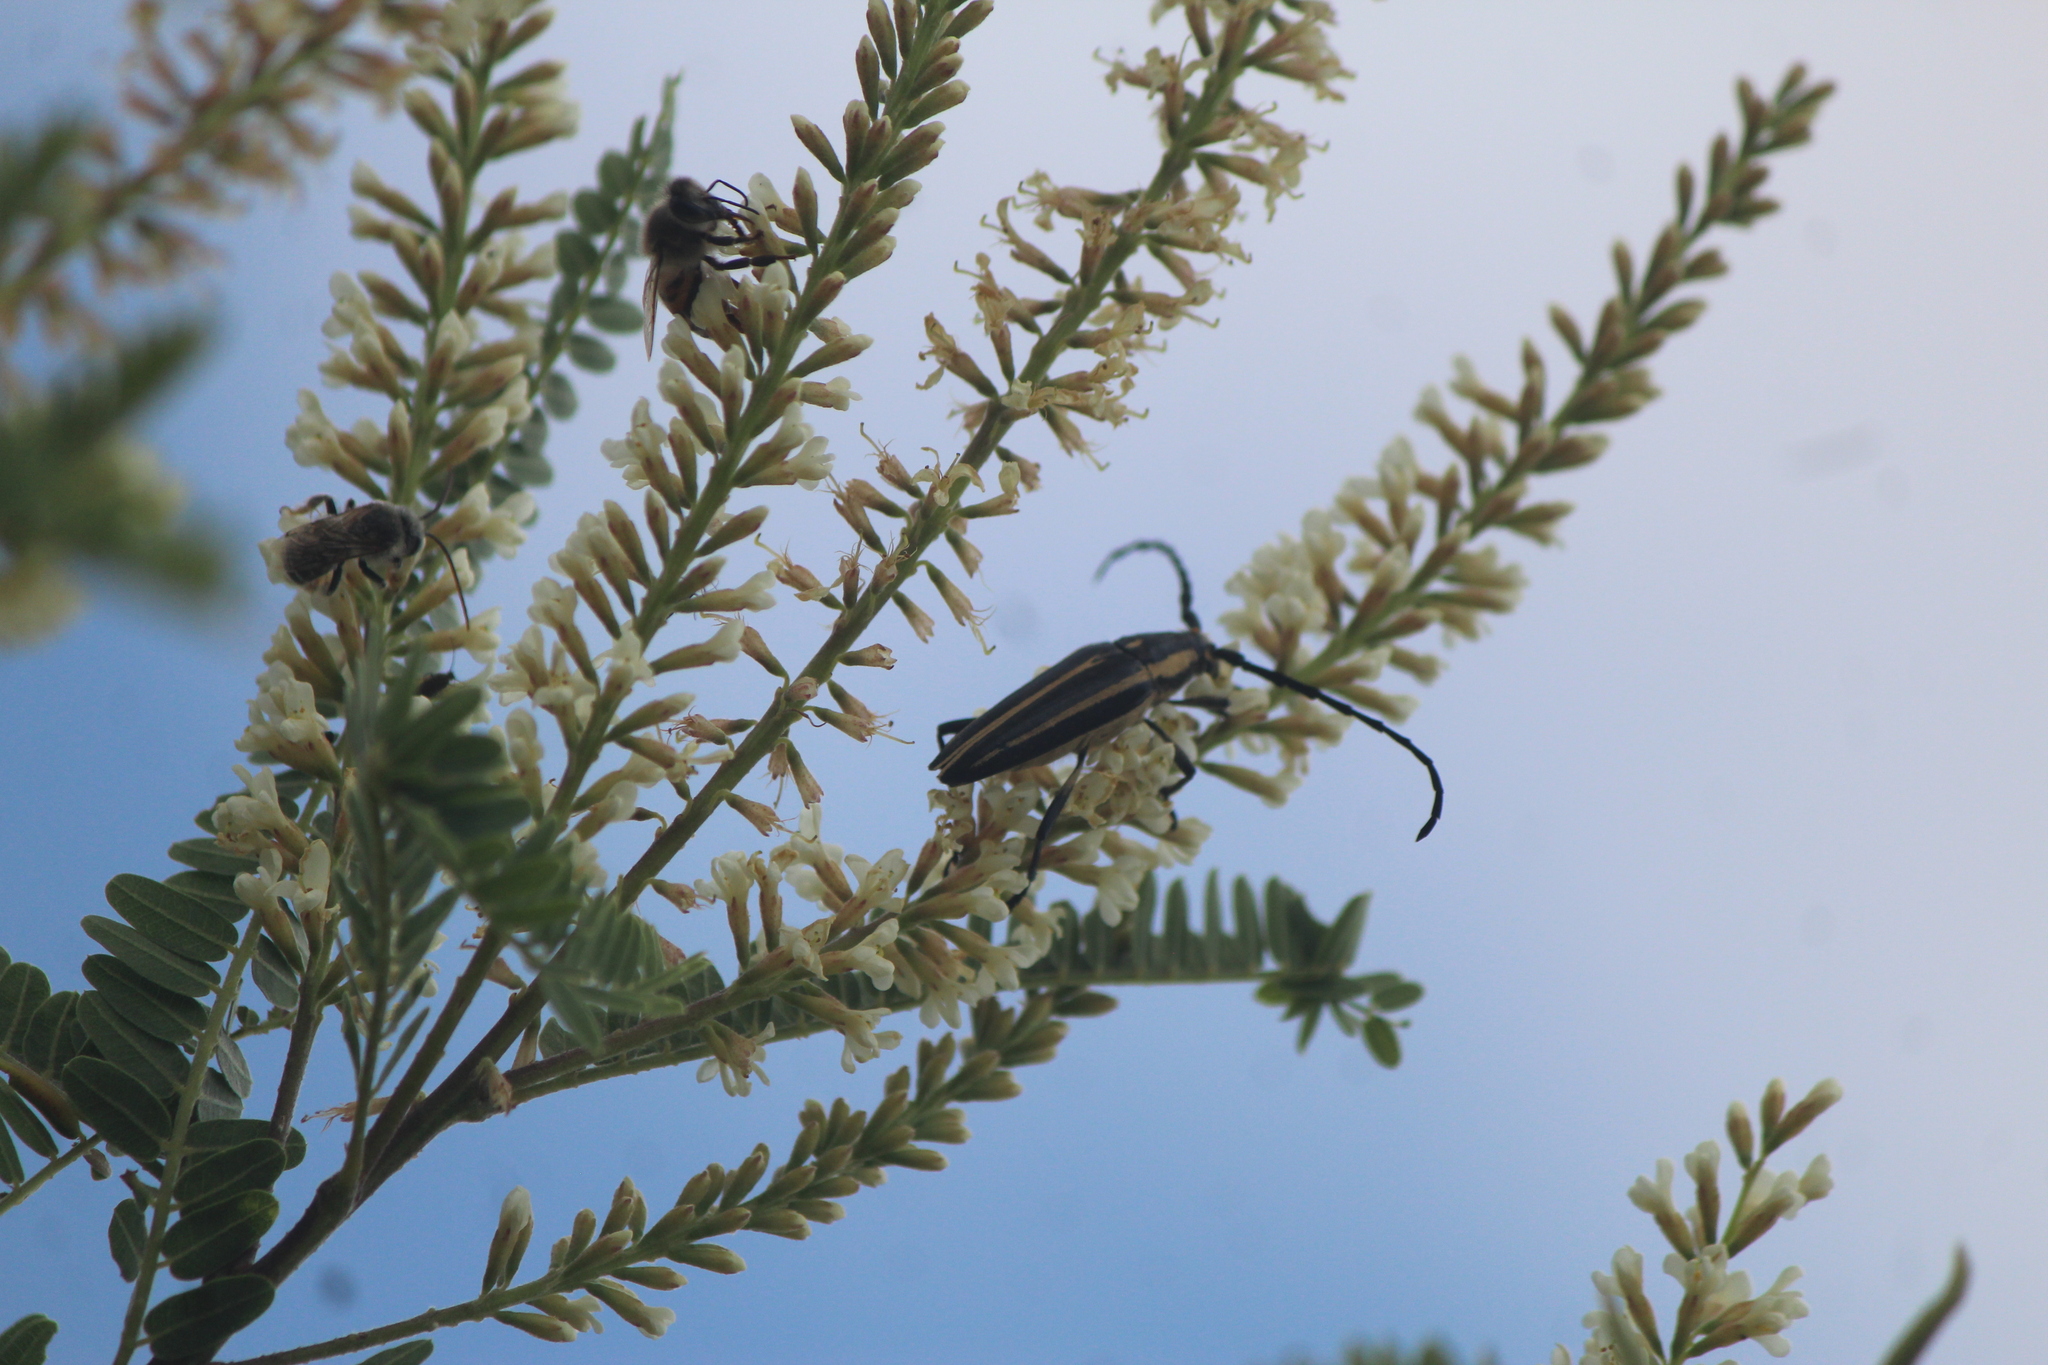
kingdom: Animalia
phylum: Arthropoda
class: Insecta
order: Coleoptera
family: Cerambycidae
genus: Sphaenothecus
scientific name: Sphaenothecus trilineatus
